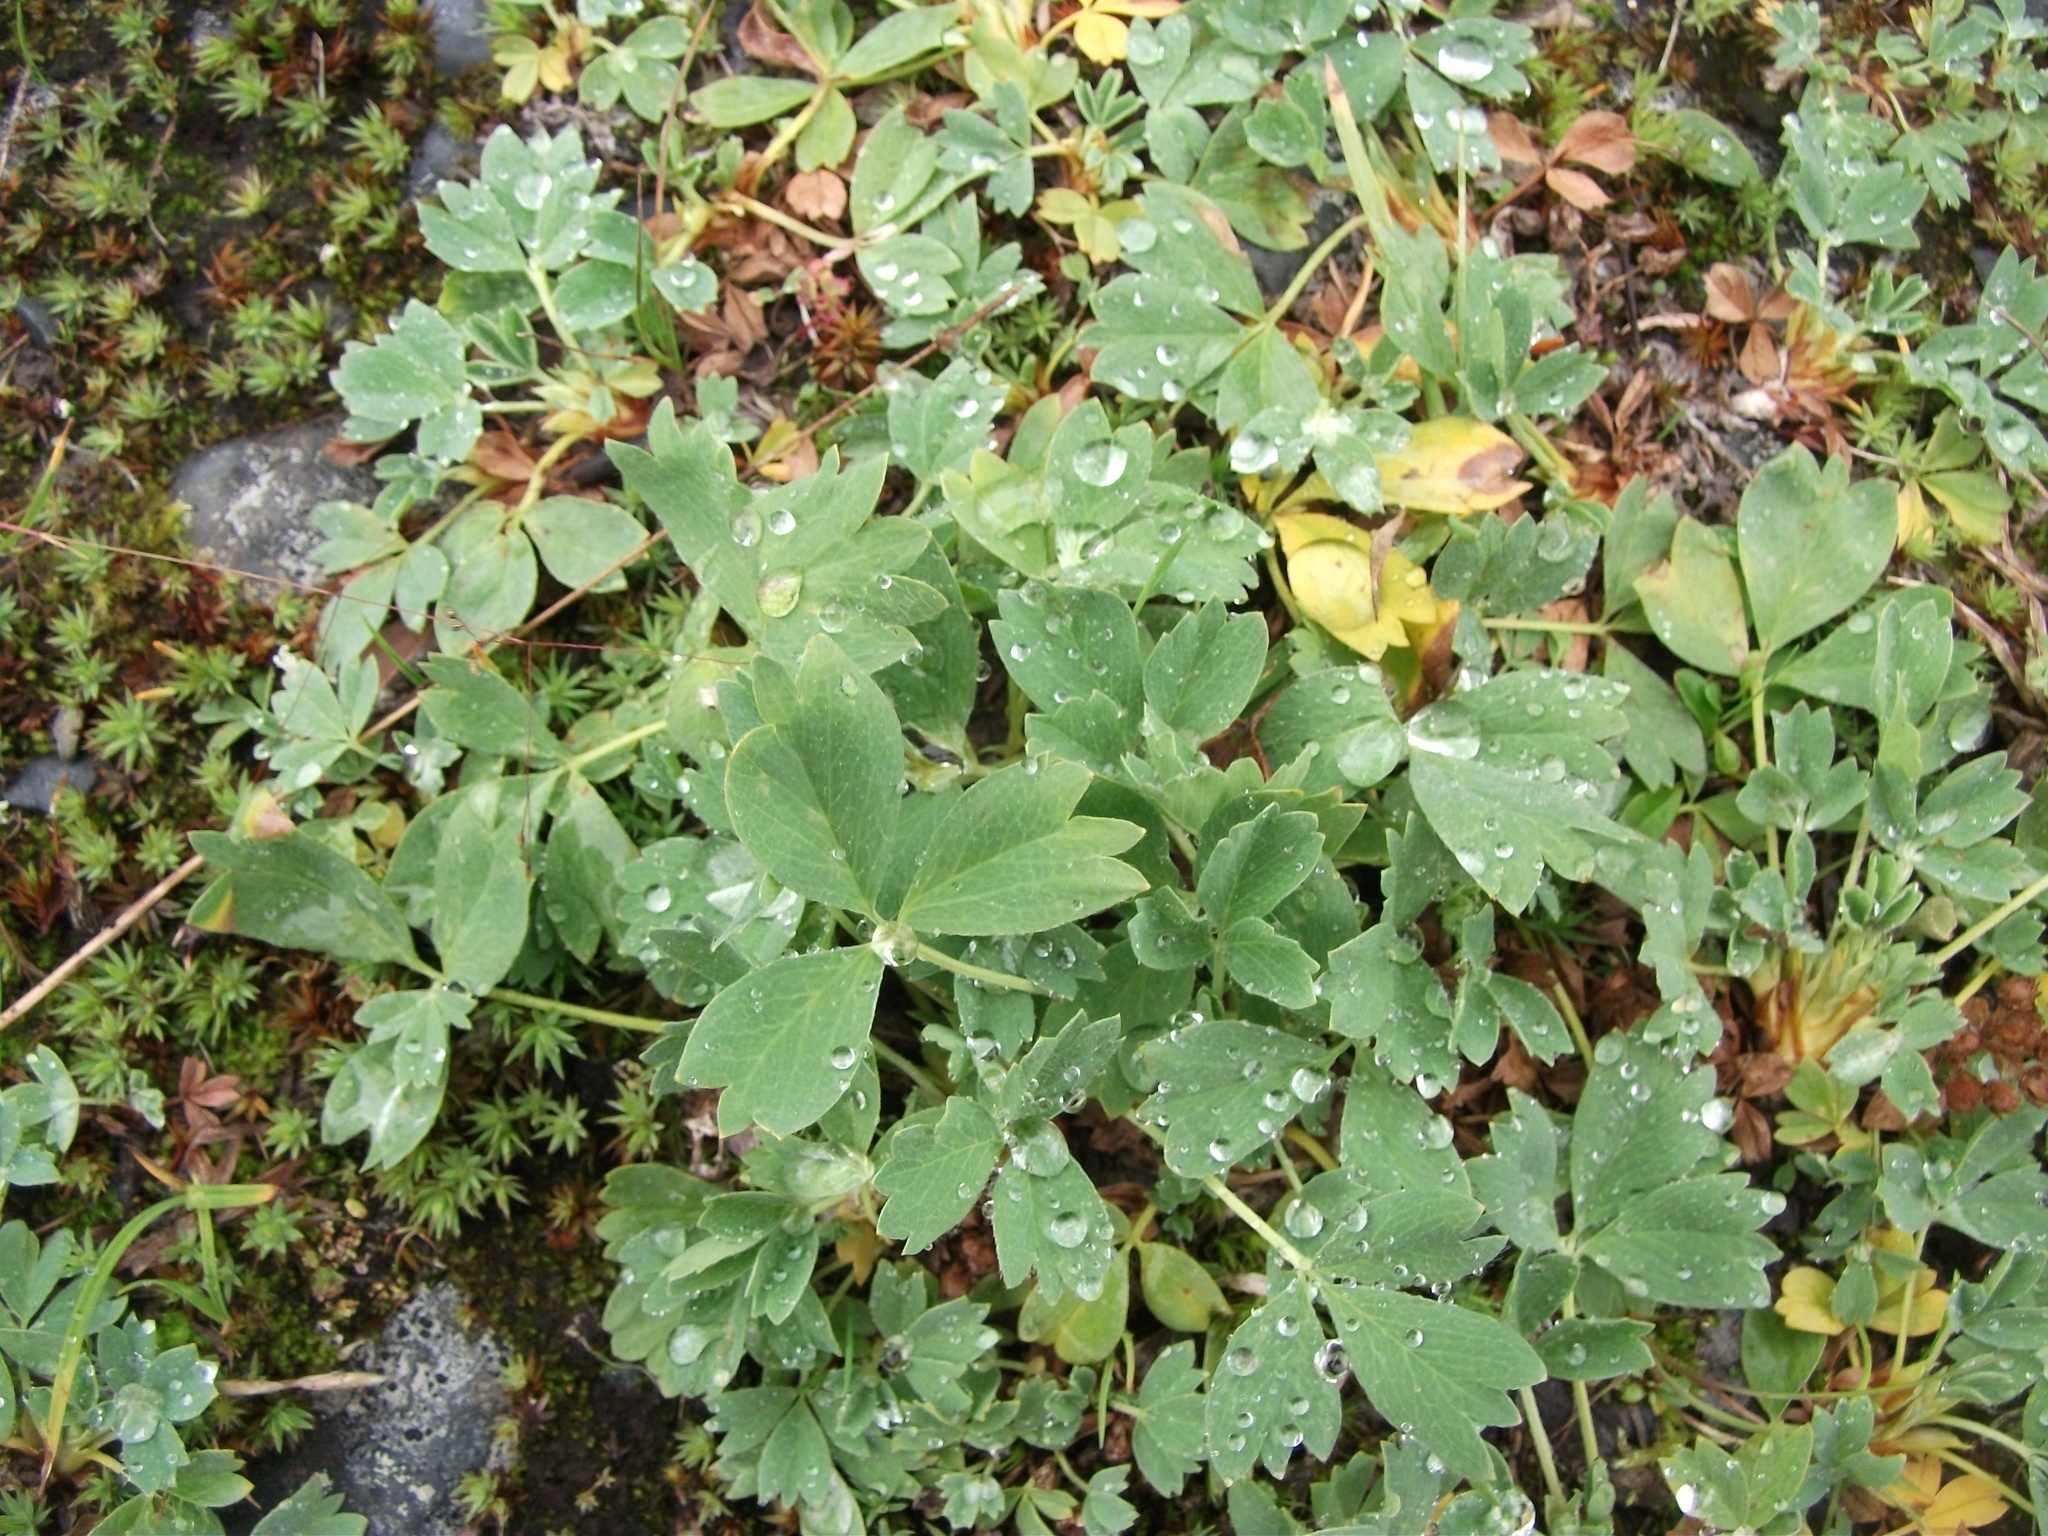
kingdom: Plantae
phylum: Tracheophyta
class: Magnoliopsida
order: Rosales
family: Rosaceae
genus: Sibbaldia
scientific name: Sibbaldia procumbens
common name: Creeping sibbaldia
